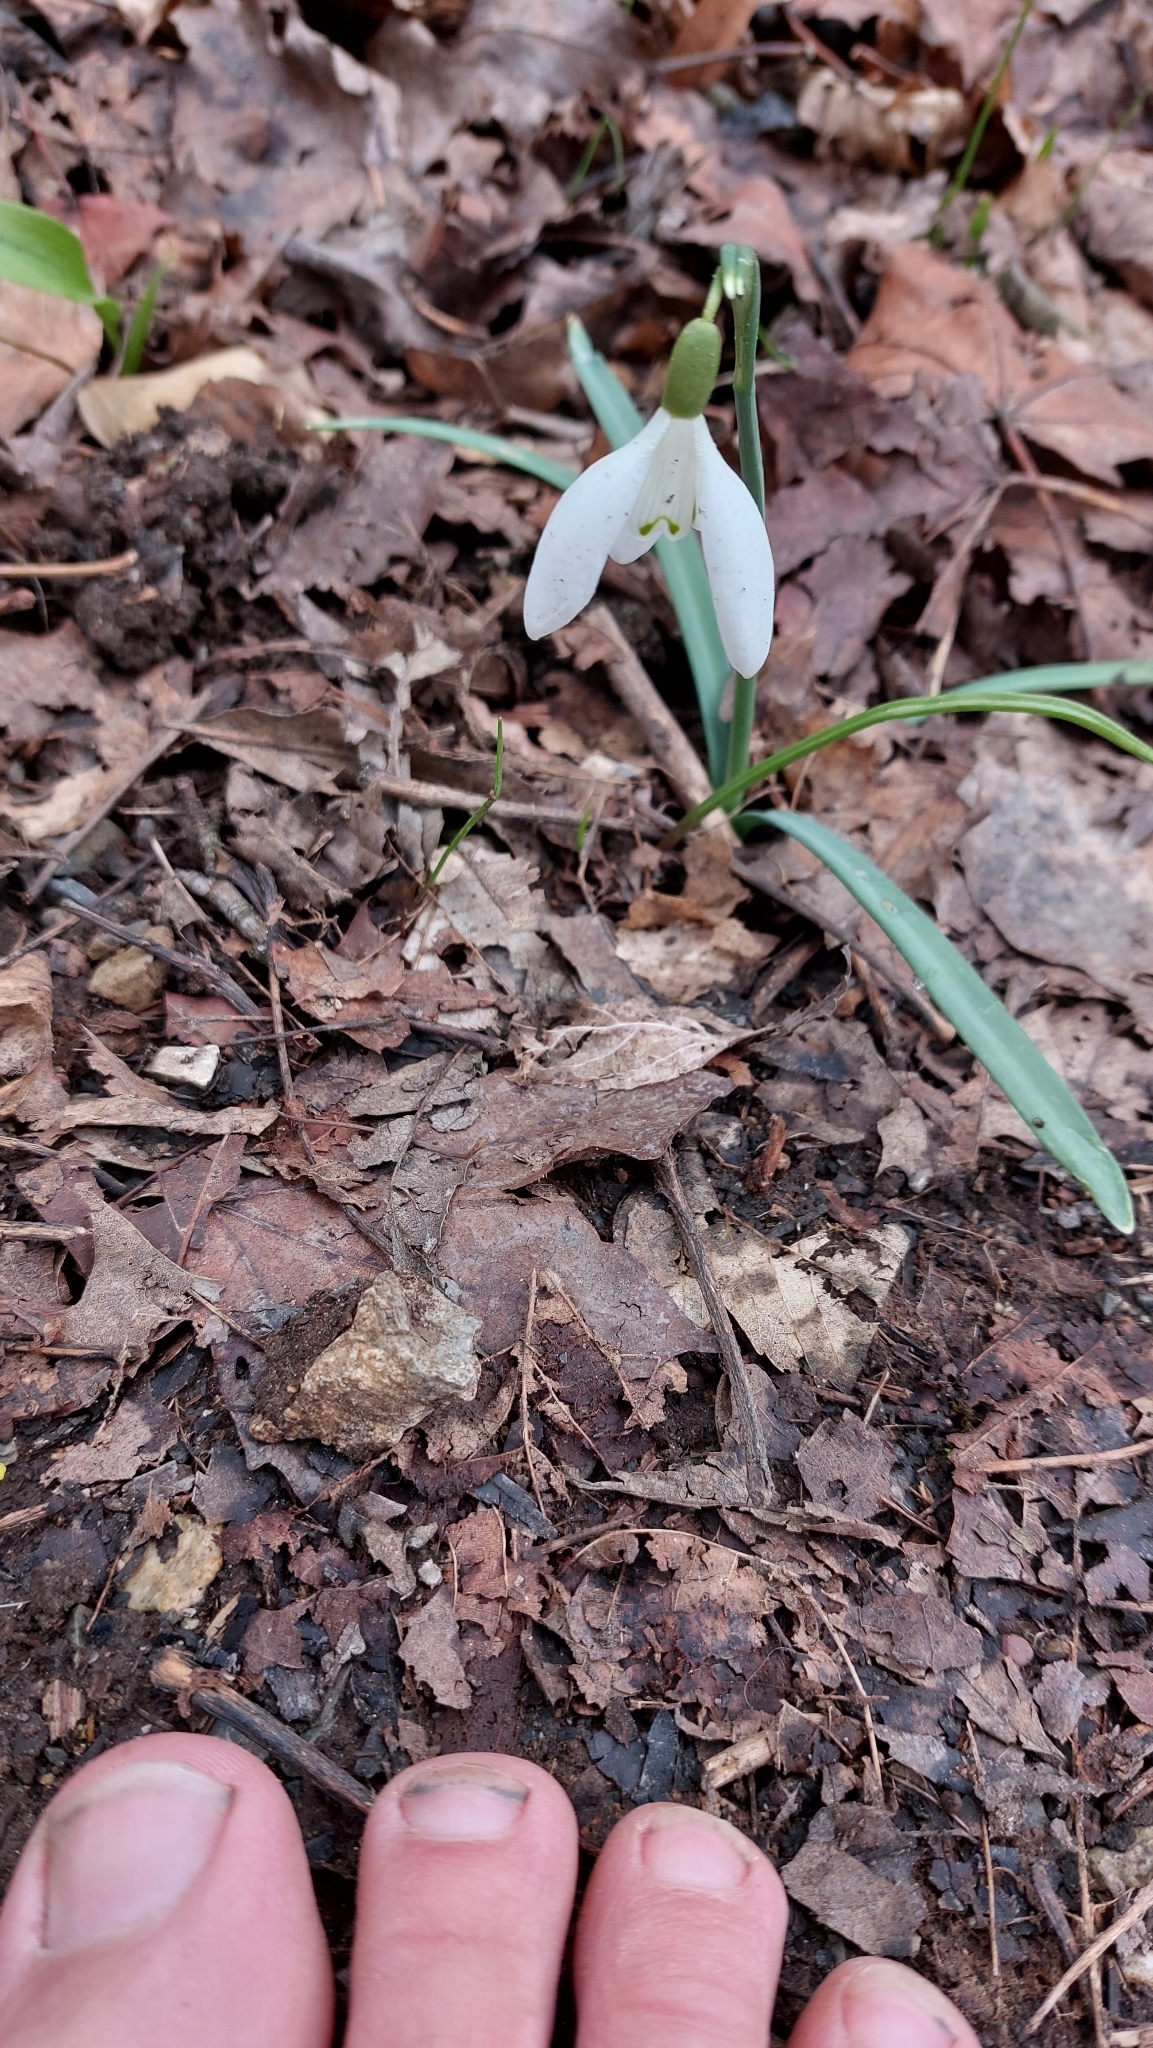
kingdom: Plantae
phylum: Tracheophyta
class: Liliopsida
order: Asparagales
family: Amaryllidaceae
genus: Galanthus
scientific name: Galanthus nivalis
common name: Snowdrop
